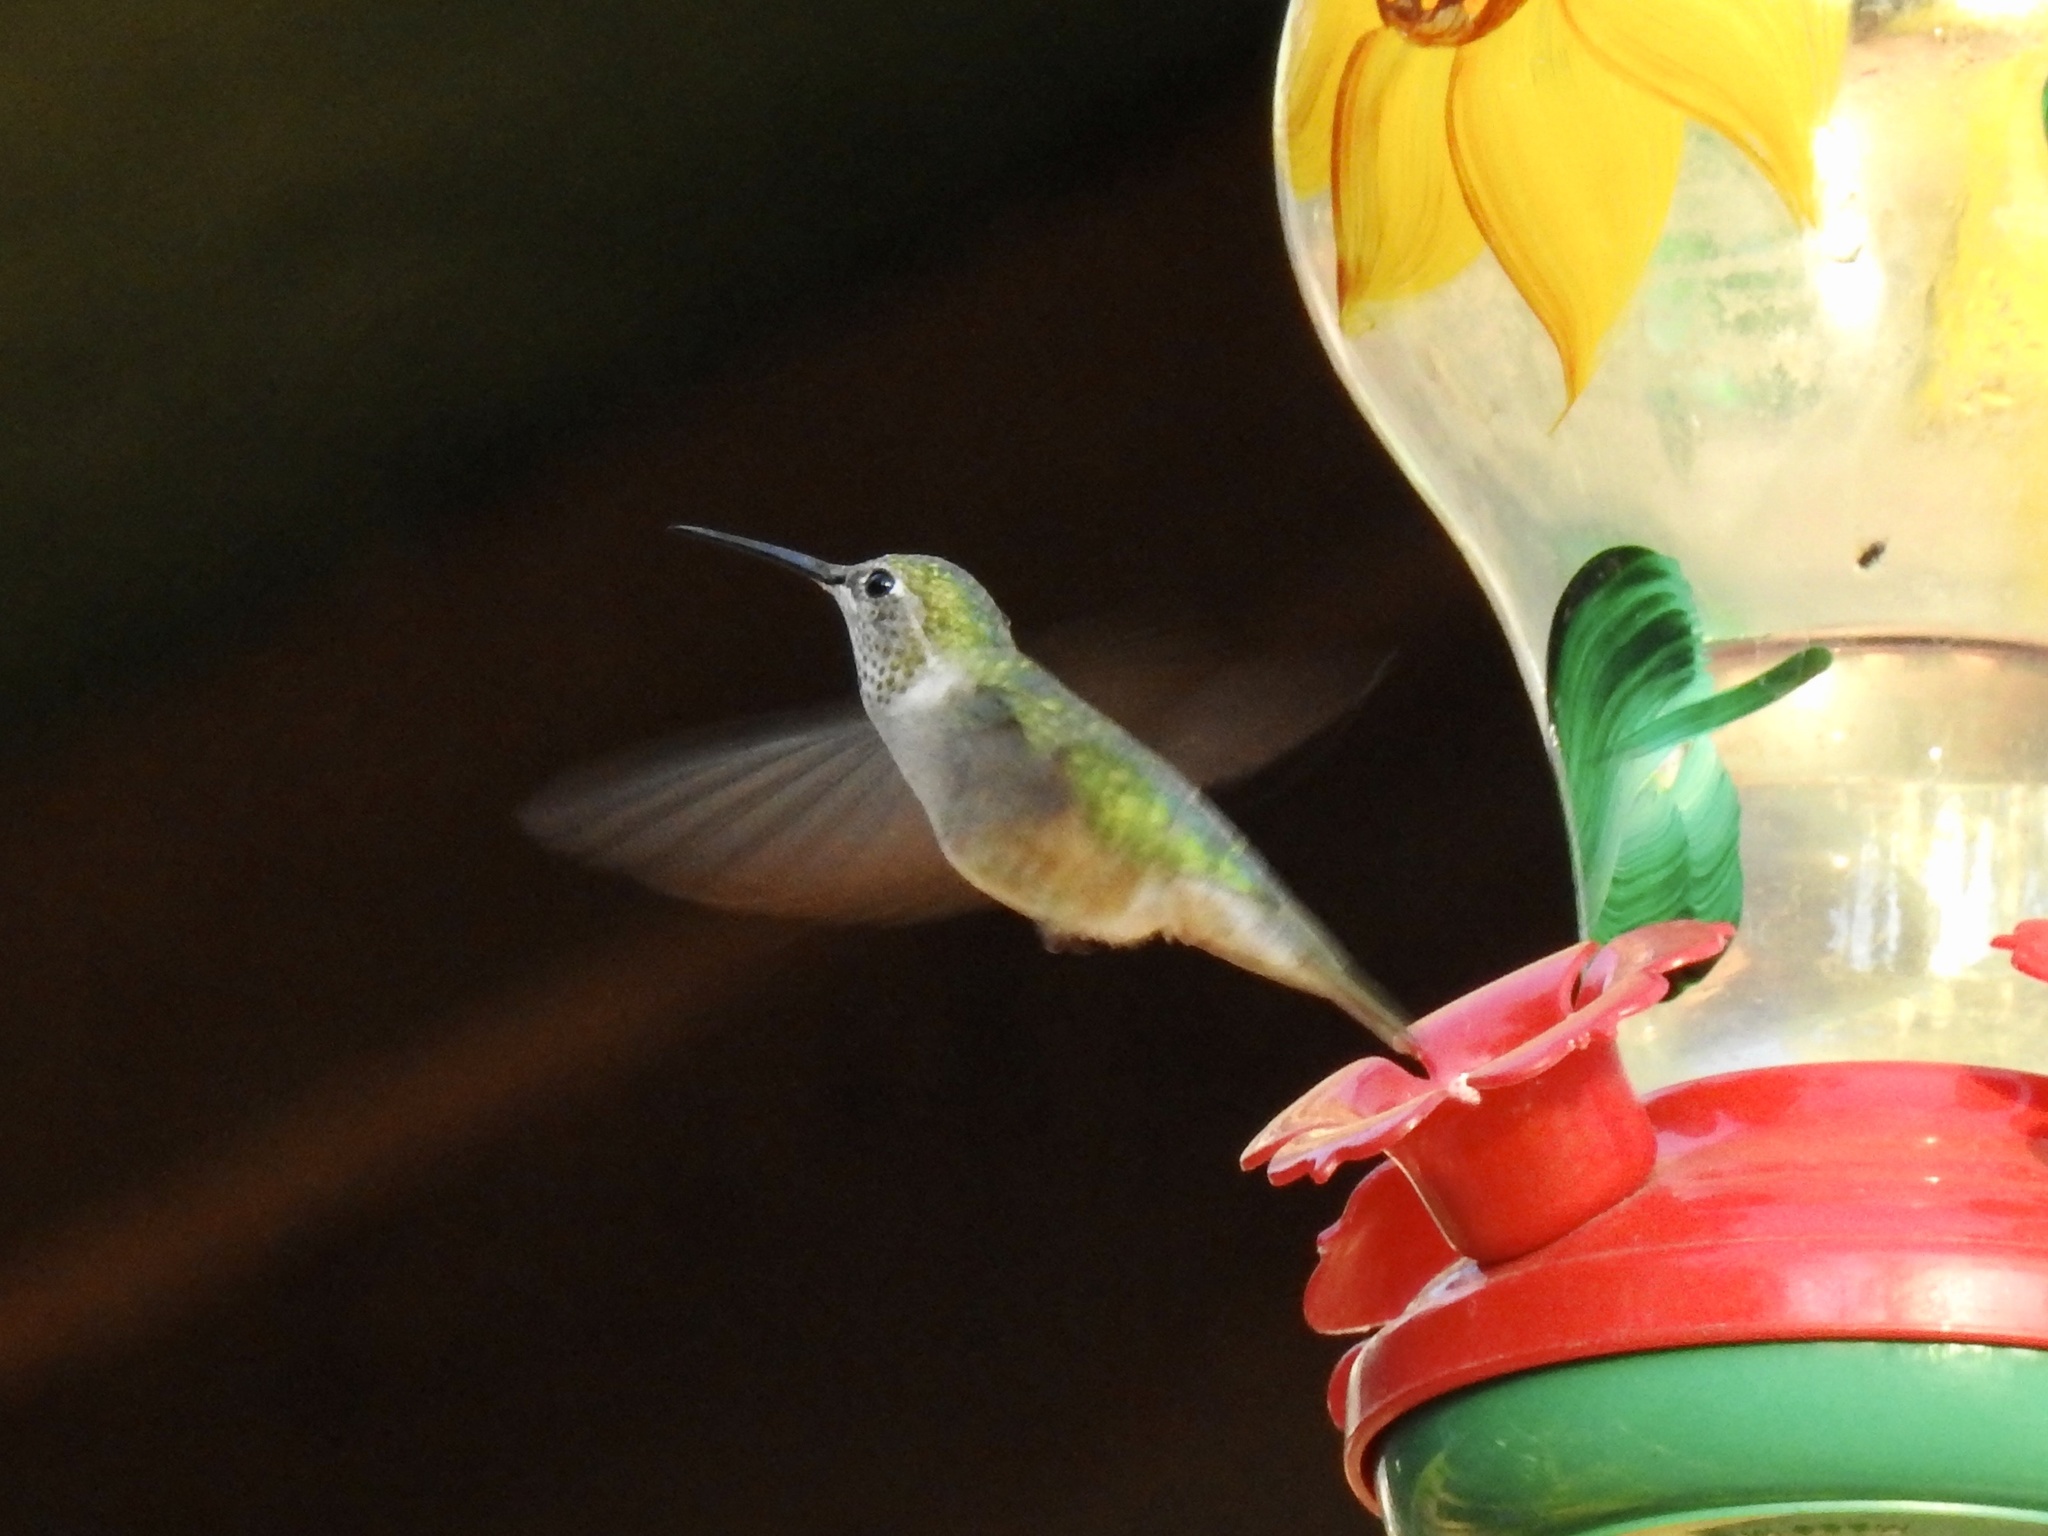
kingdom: Animalia
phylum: Chordata
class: Aves
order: Apodiformes
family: Trochilidae
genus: Selasphorus
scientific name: Selasphorus platycercus
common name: Broad-tailed hummingbird
